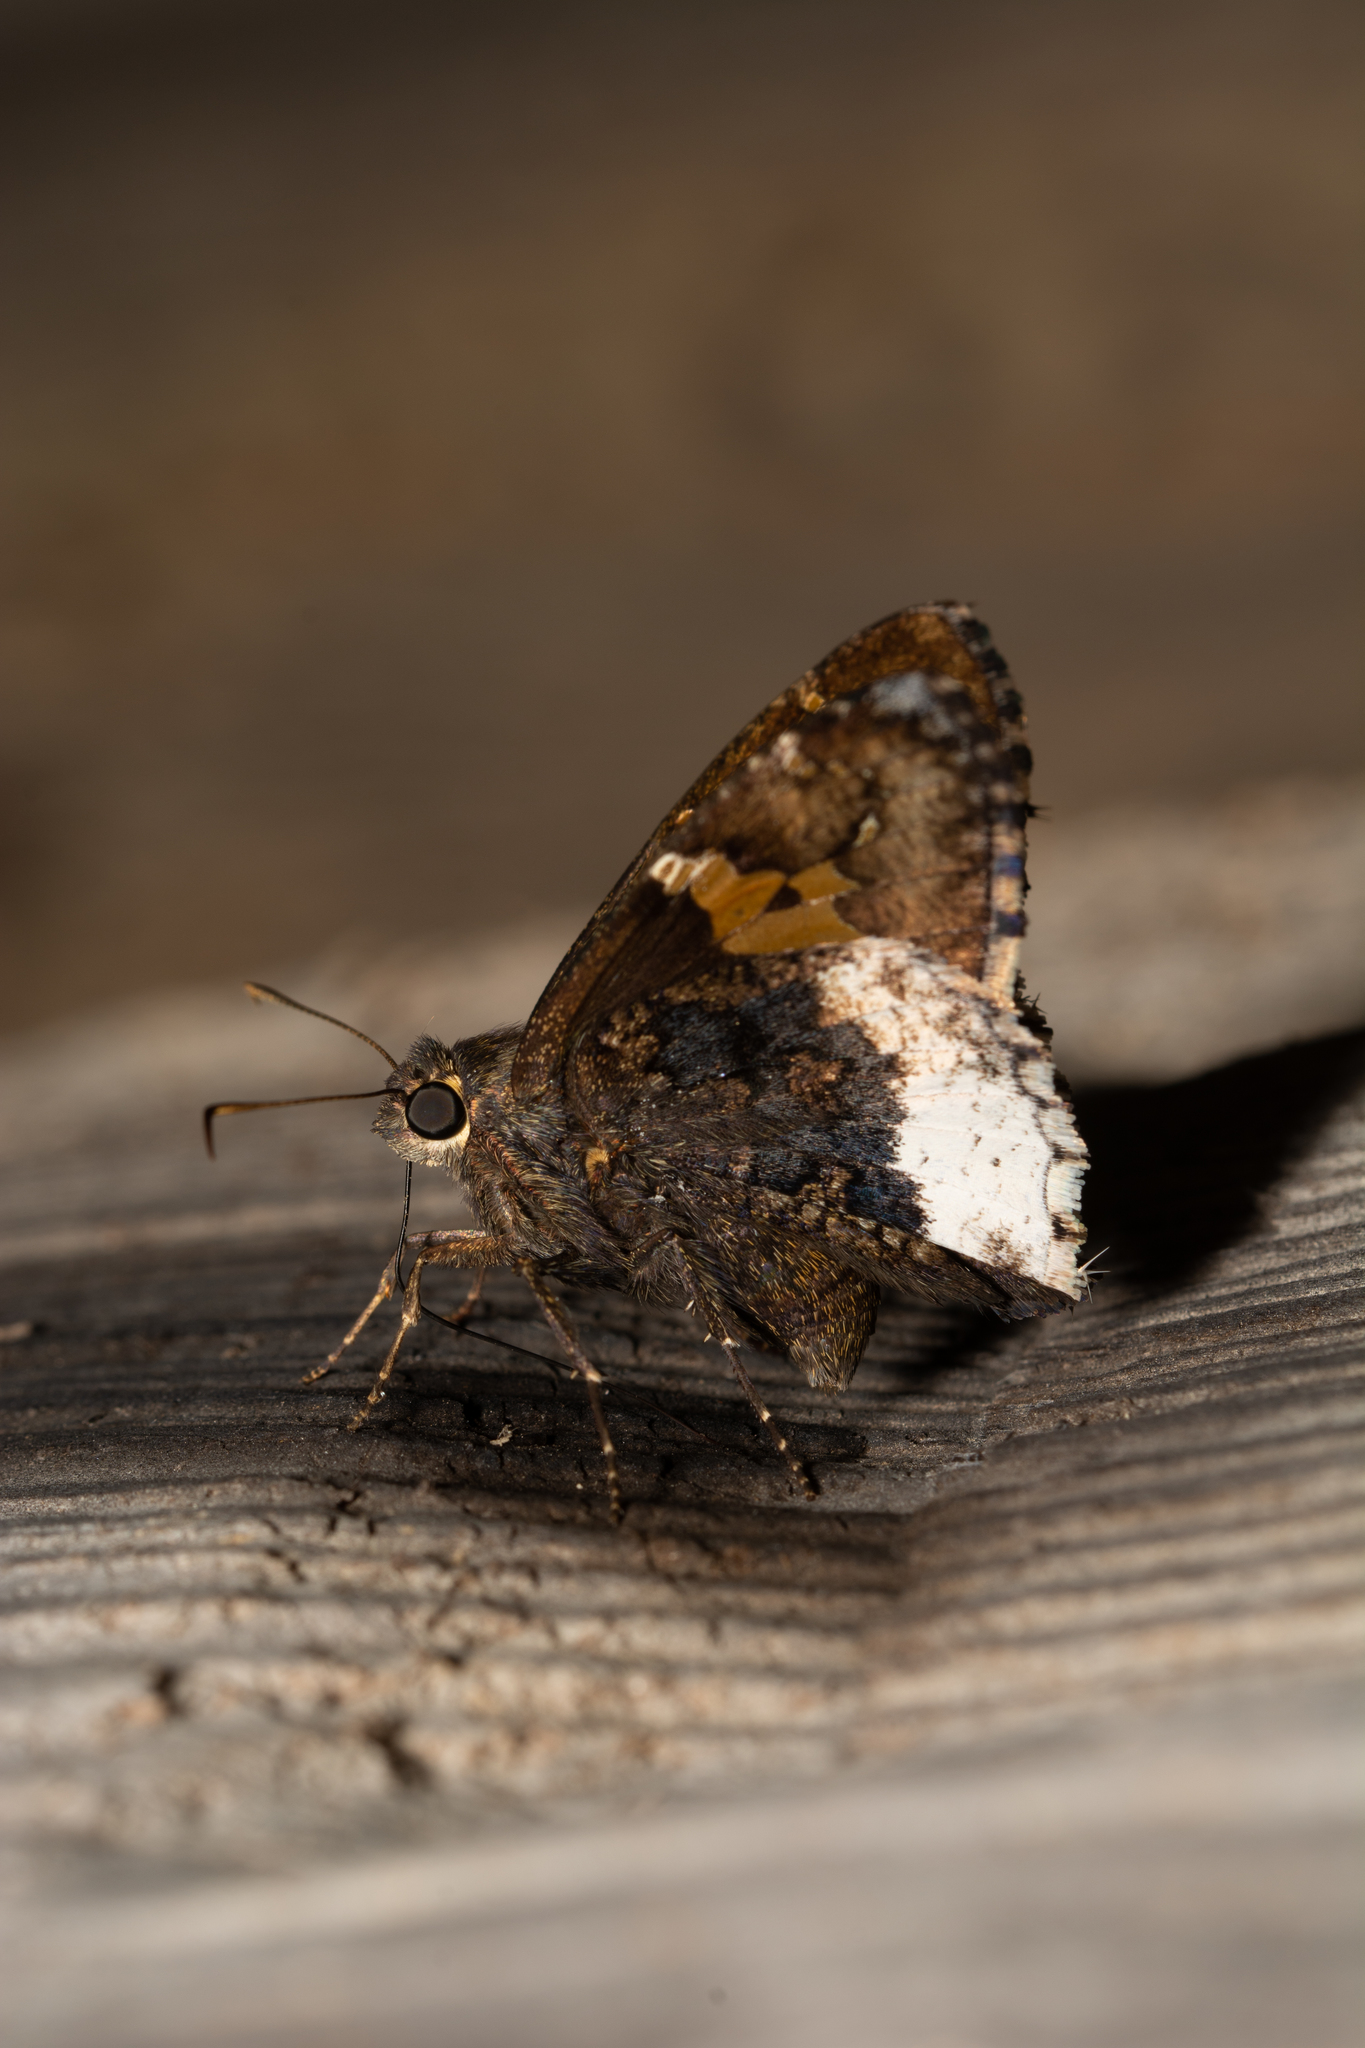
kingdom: Animalia
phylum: Arthropoda
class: Insecta
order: Lepidoptera
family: Hesperiidae
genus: Thorybes
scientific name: Thorybes lyciades
